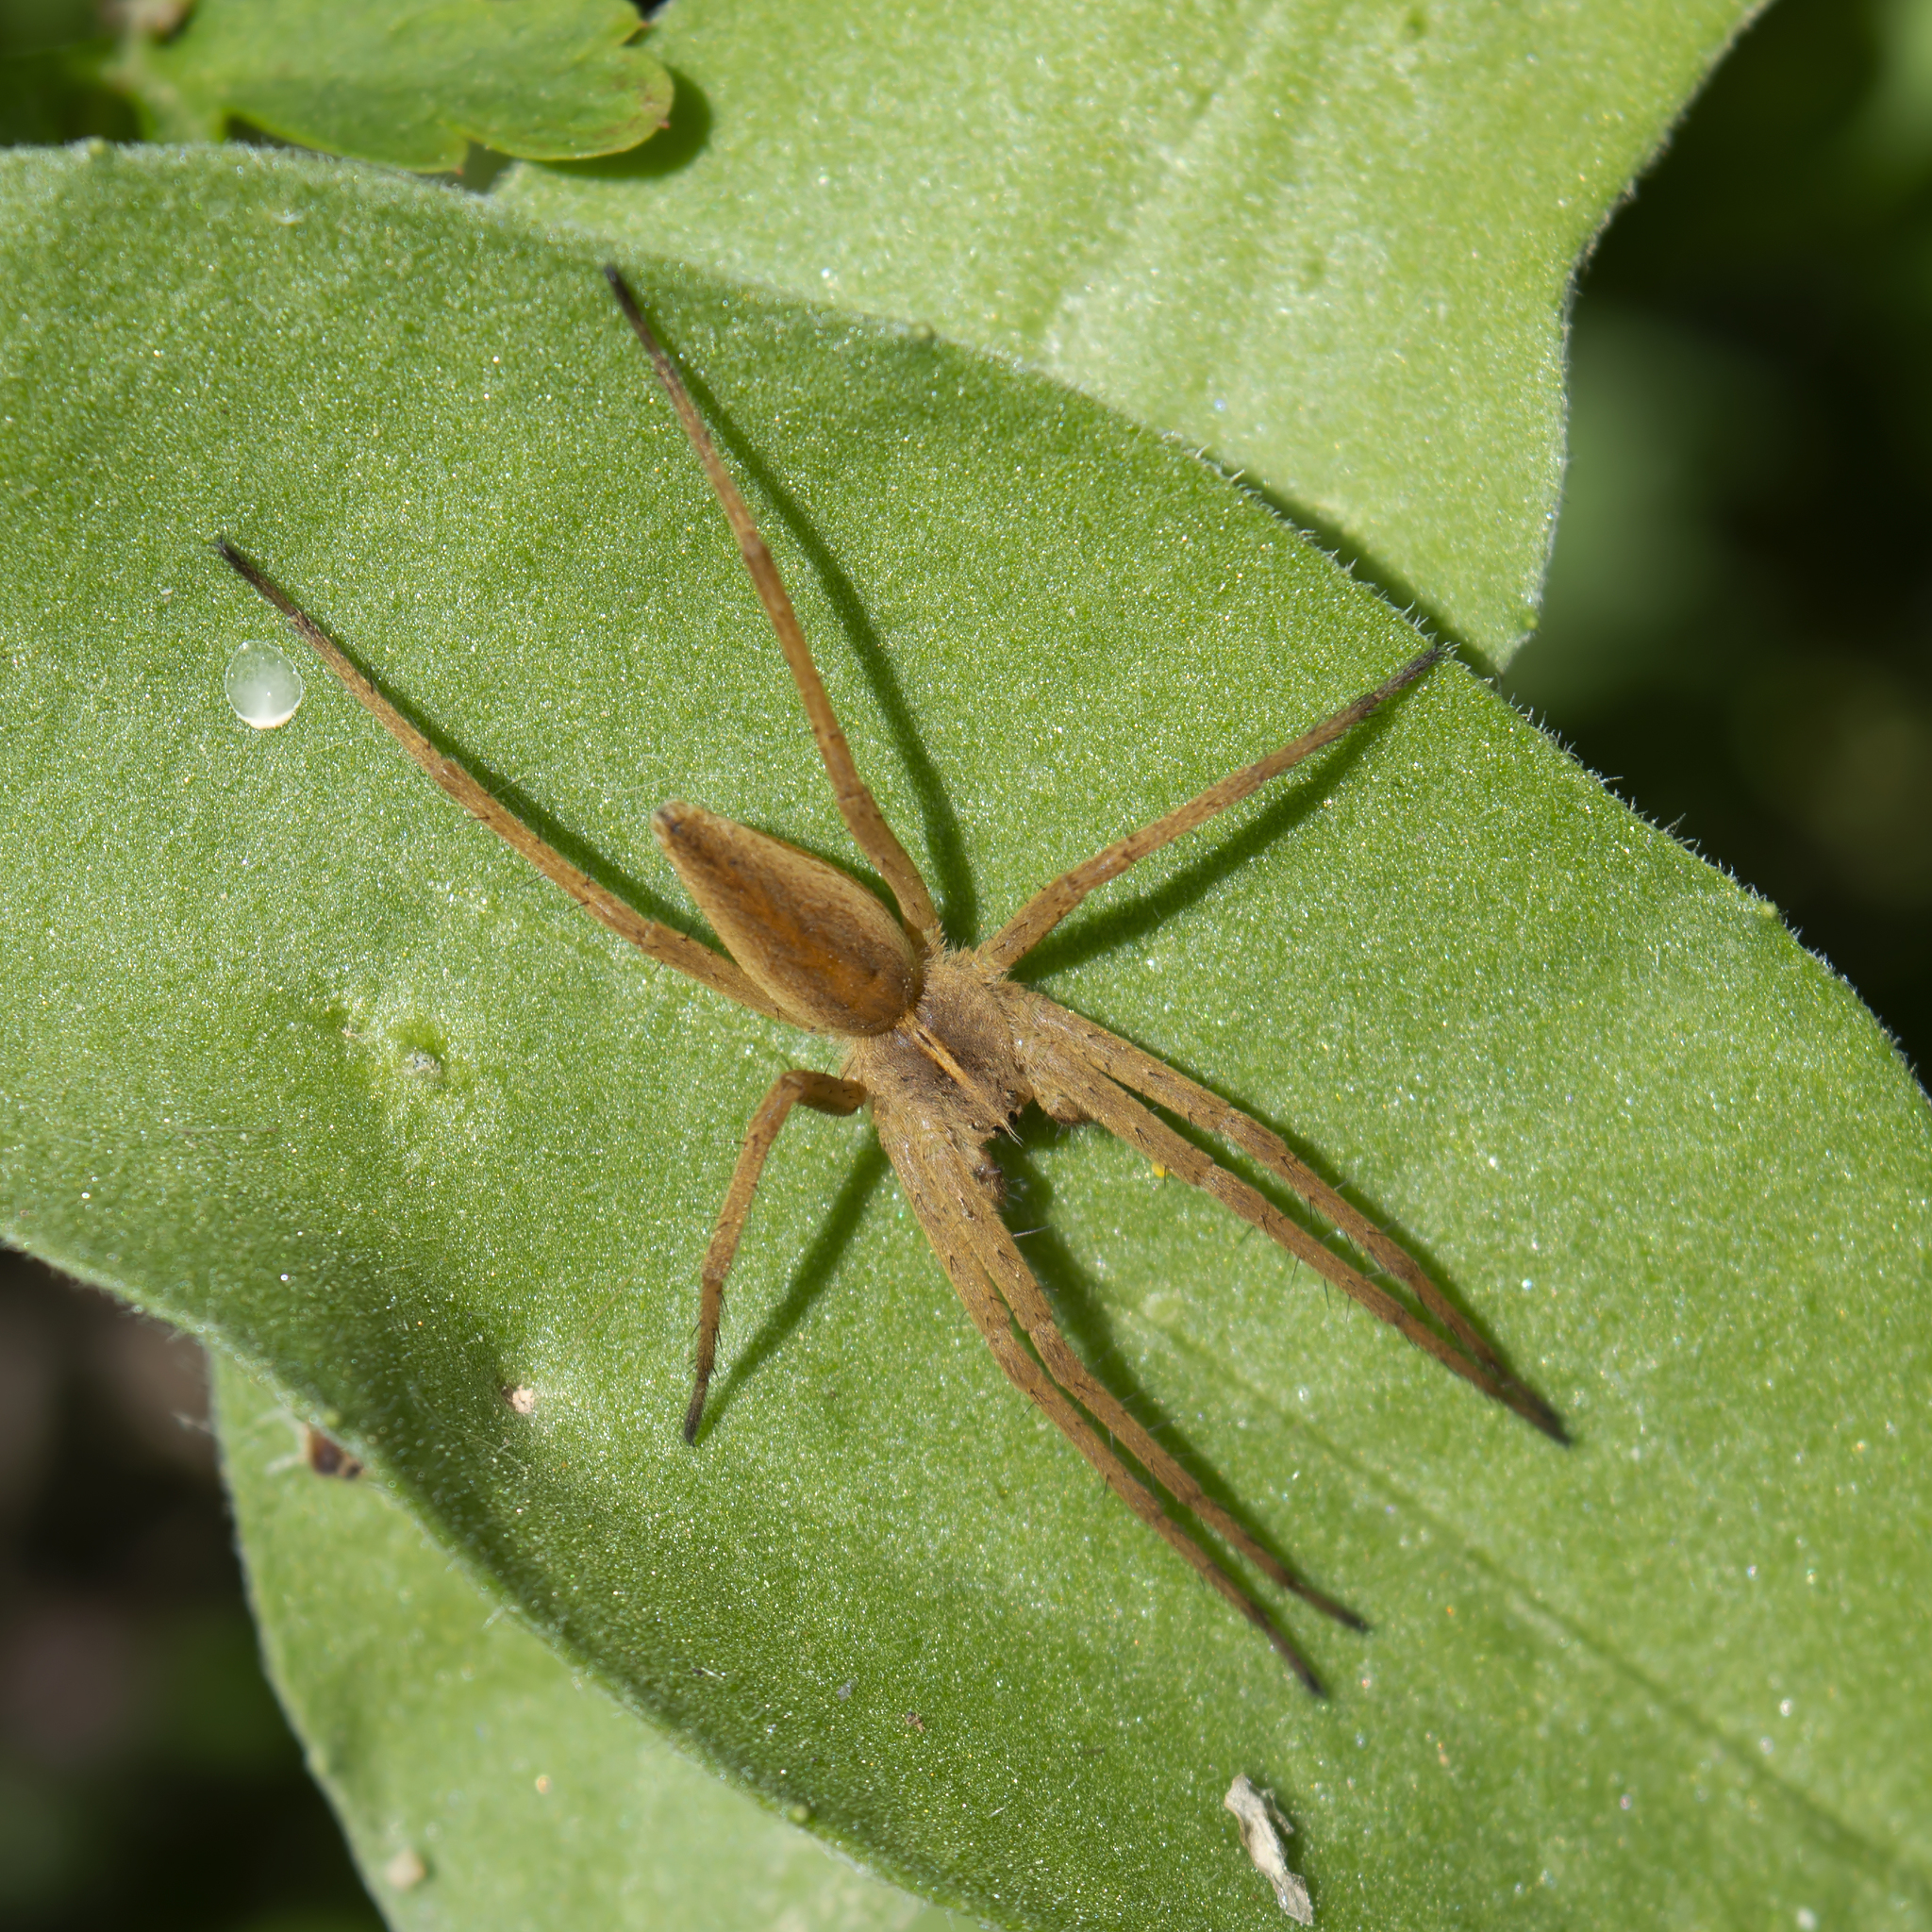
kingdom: Animalia
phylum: Arthropoda
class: Arachnida
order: Araneae
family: Pisauridae
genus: Pisaura
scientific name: Pisaura mirabilis
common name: Tent spider
